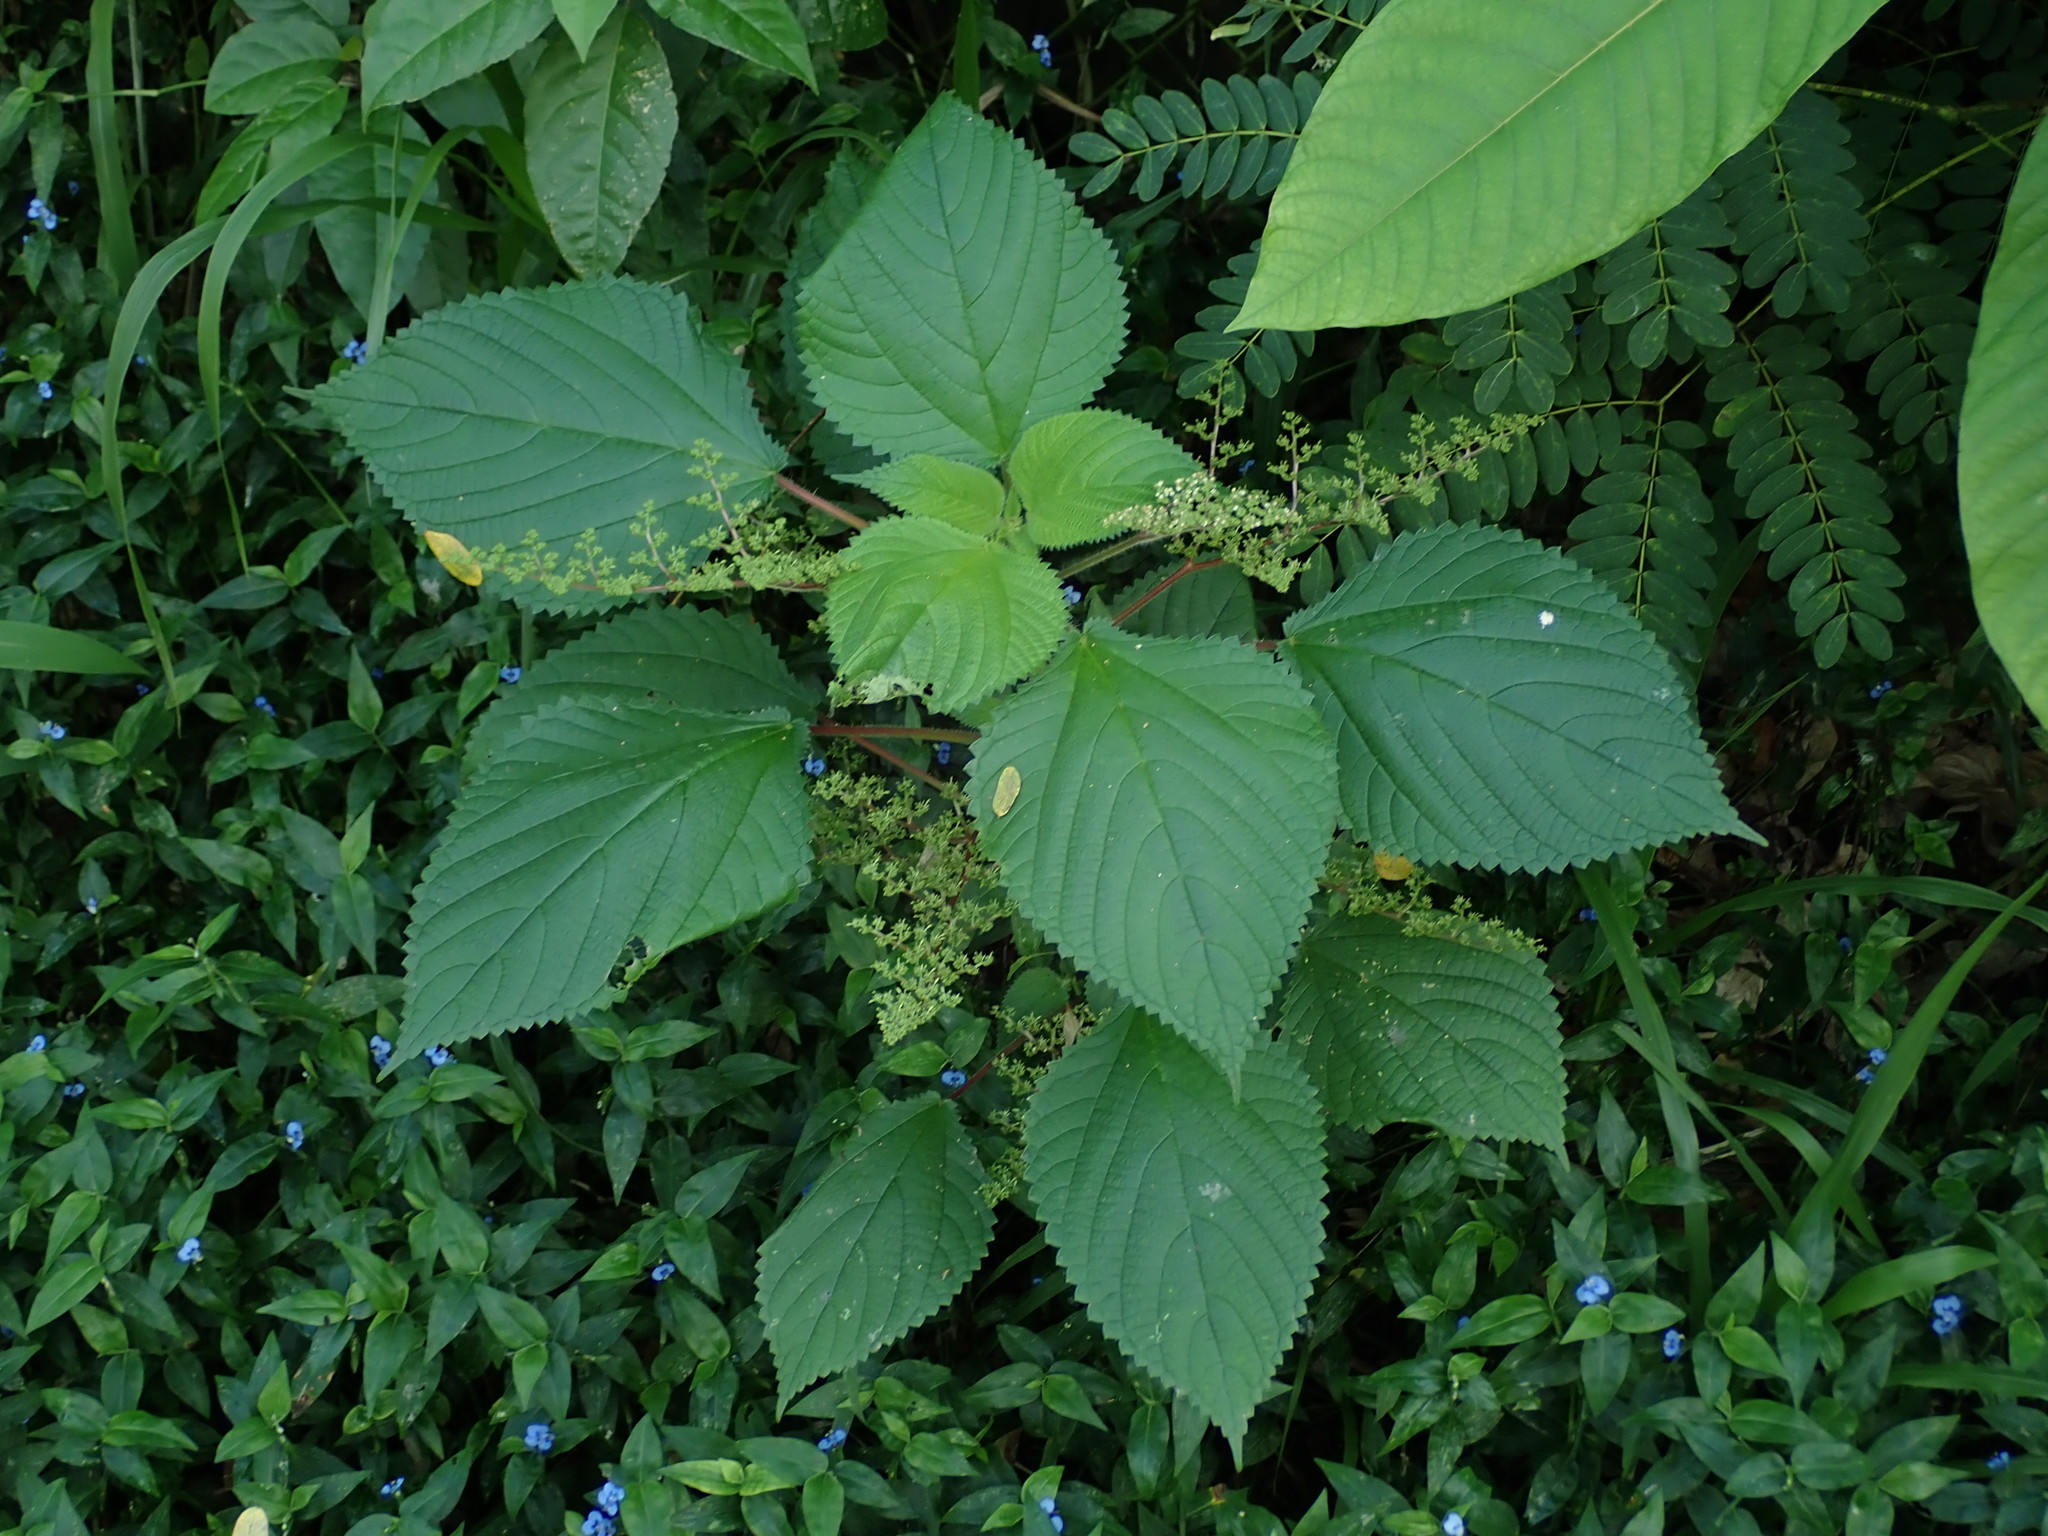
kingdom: Plantae
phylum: Tracheophyta
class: Magnoliopsida
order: Rosales
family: Urticaceae
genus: Laportea
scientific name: Laportea aestuans
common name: West indian woodnettle
